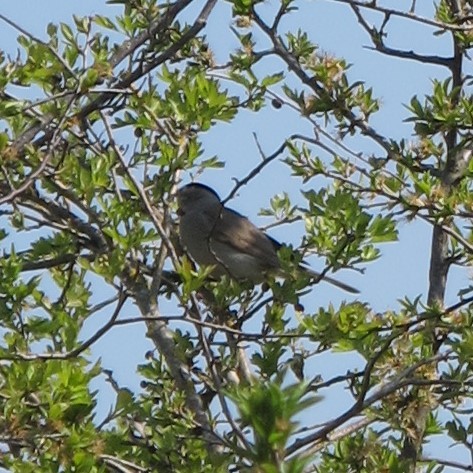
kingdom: Animalia
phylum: Chordata
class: Aves
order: Passeriformes
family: Sylviidae
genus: Sylvia
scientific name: Sylvia atricapilla
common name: Eurasian blackcap
